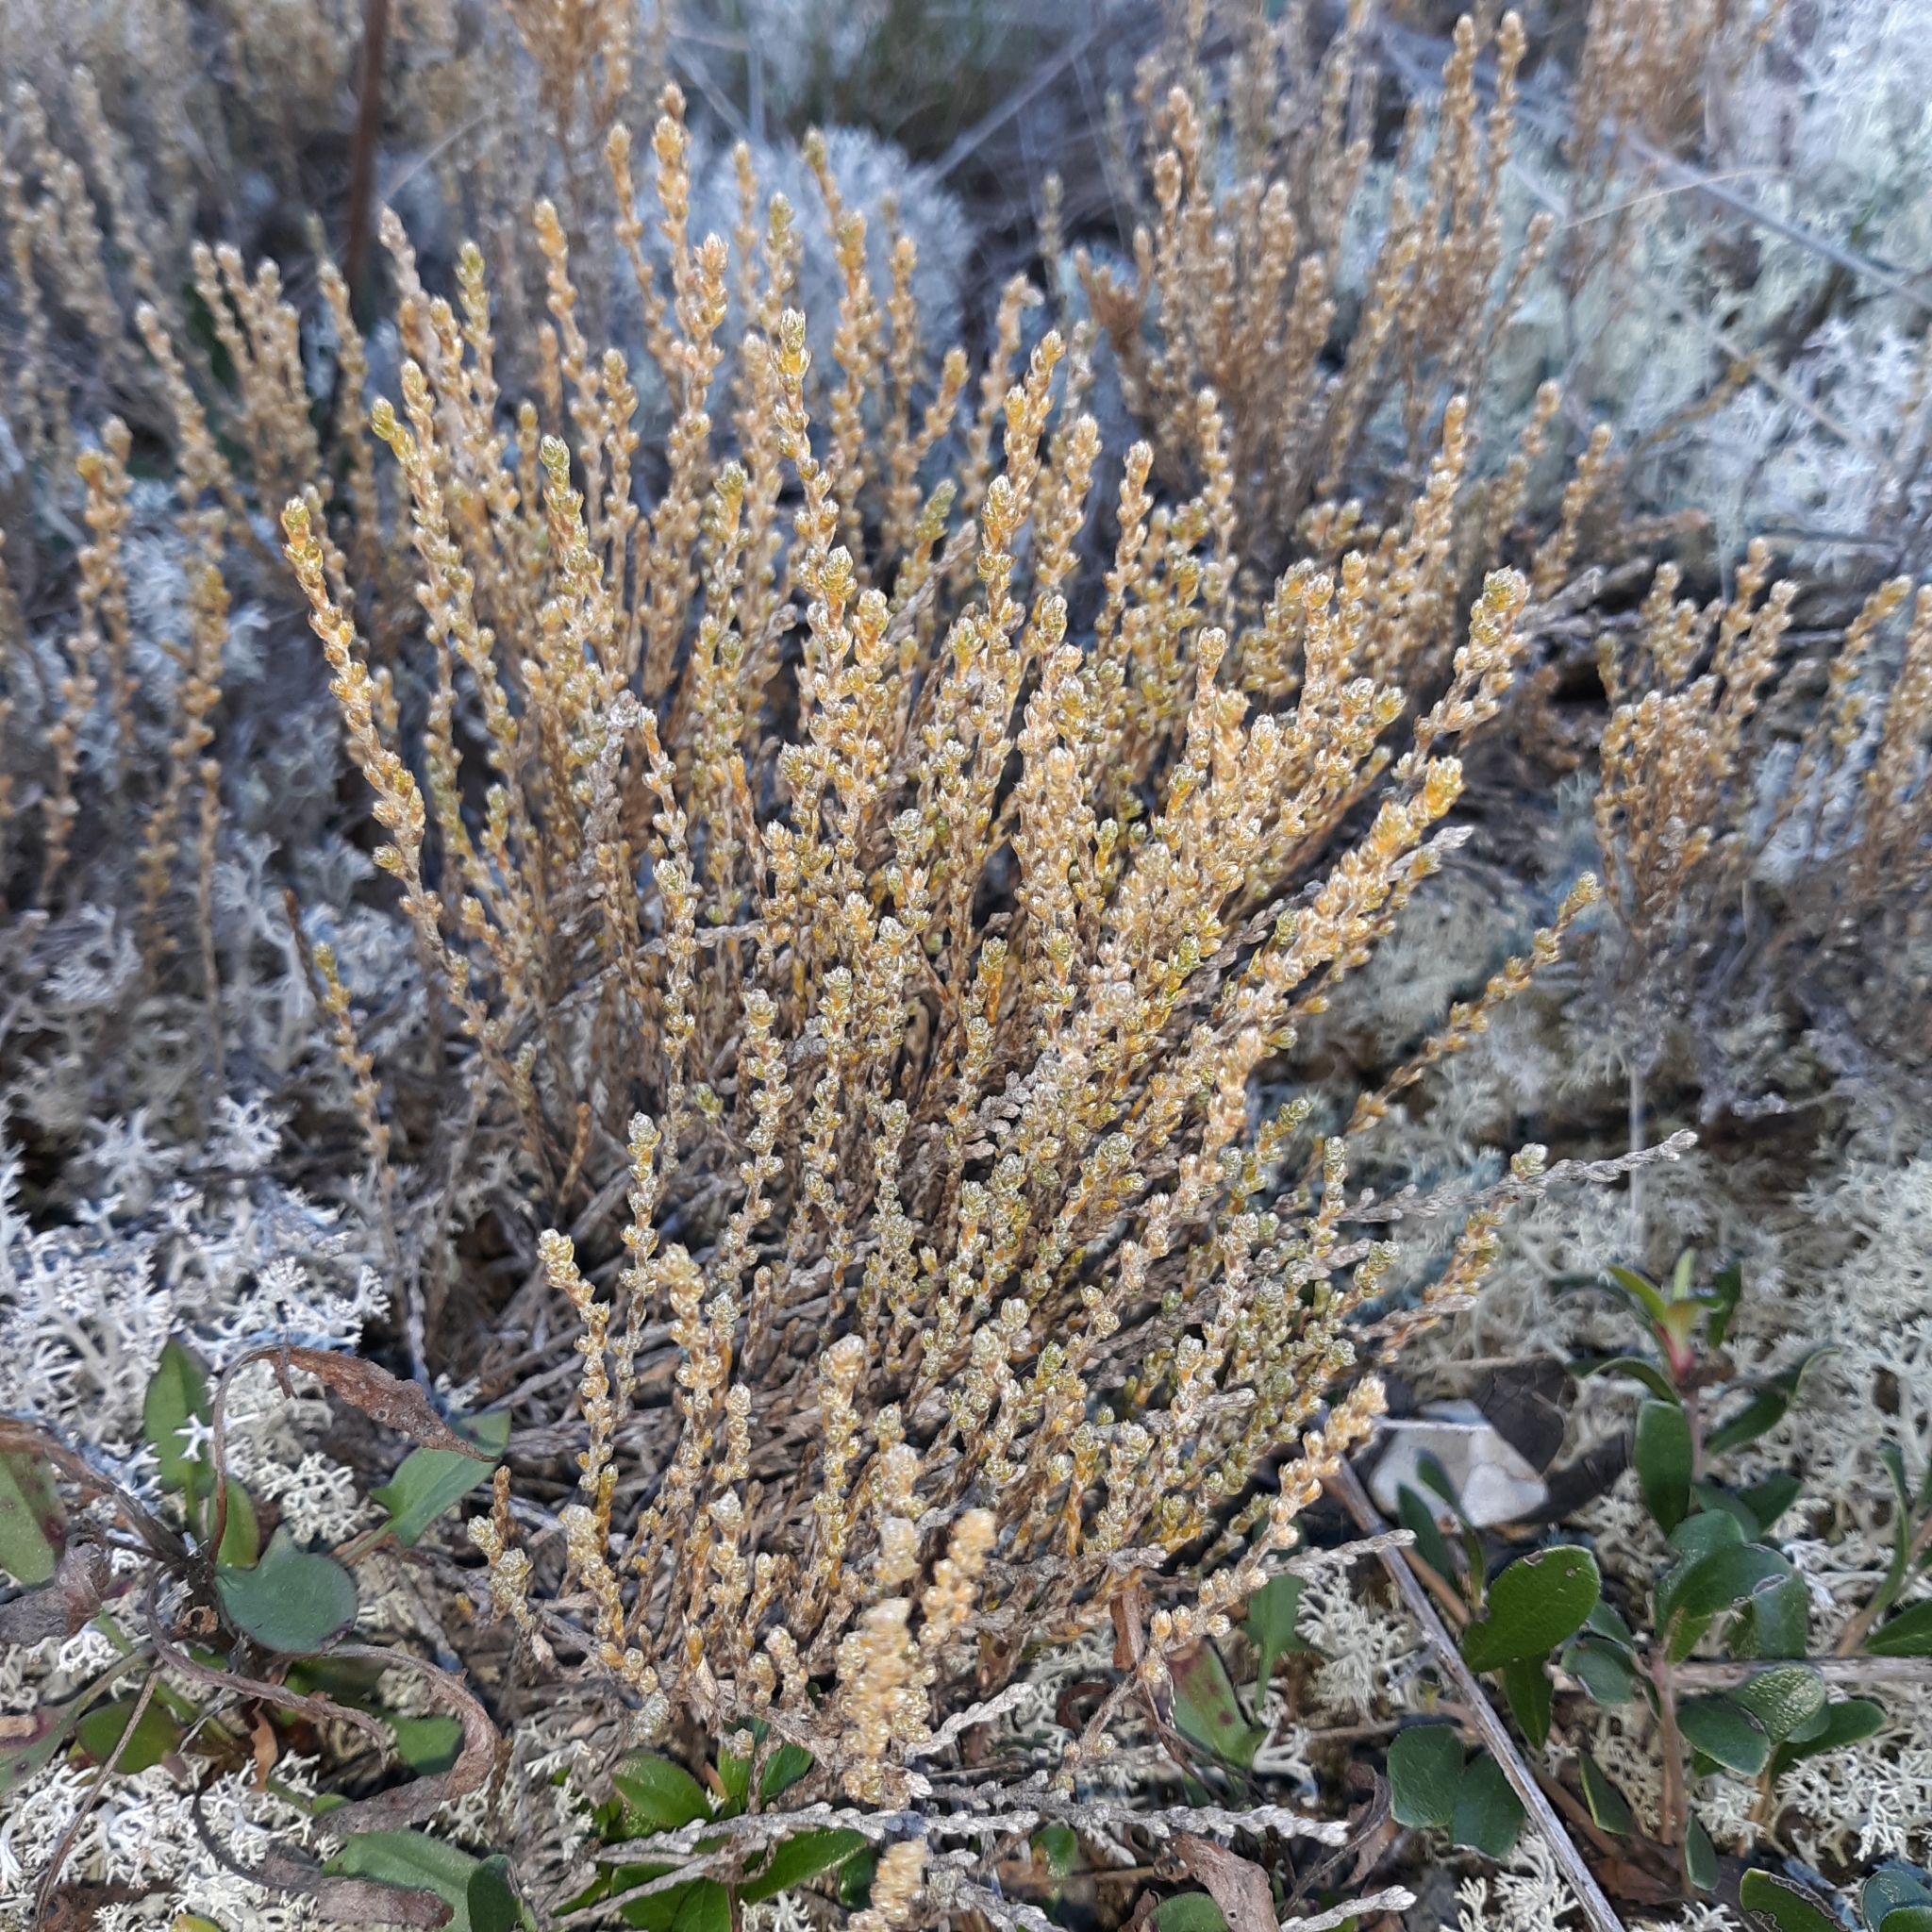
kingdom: Plantae
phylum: Tracheophyta
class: Magnoliopsida
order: Malvales
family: Cistaceae
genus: Hudsonia
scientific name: Hudsonia tomentosa
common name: Beach-heath
